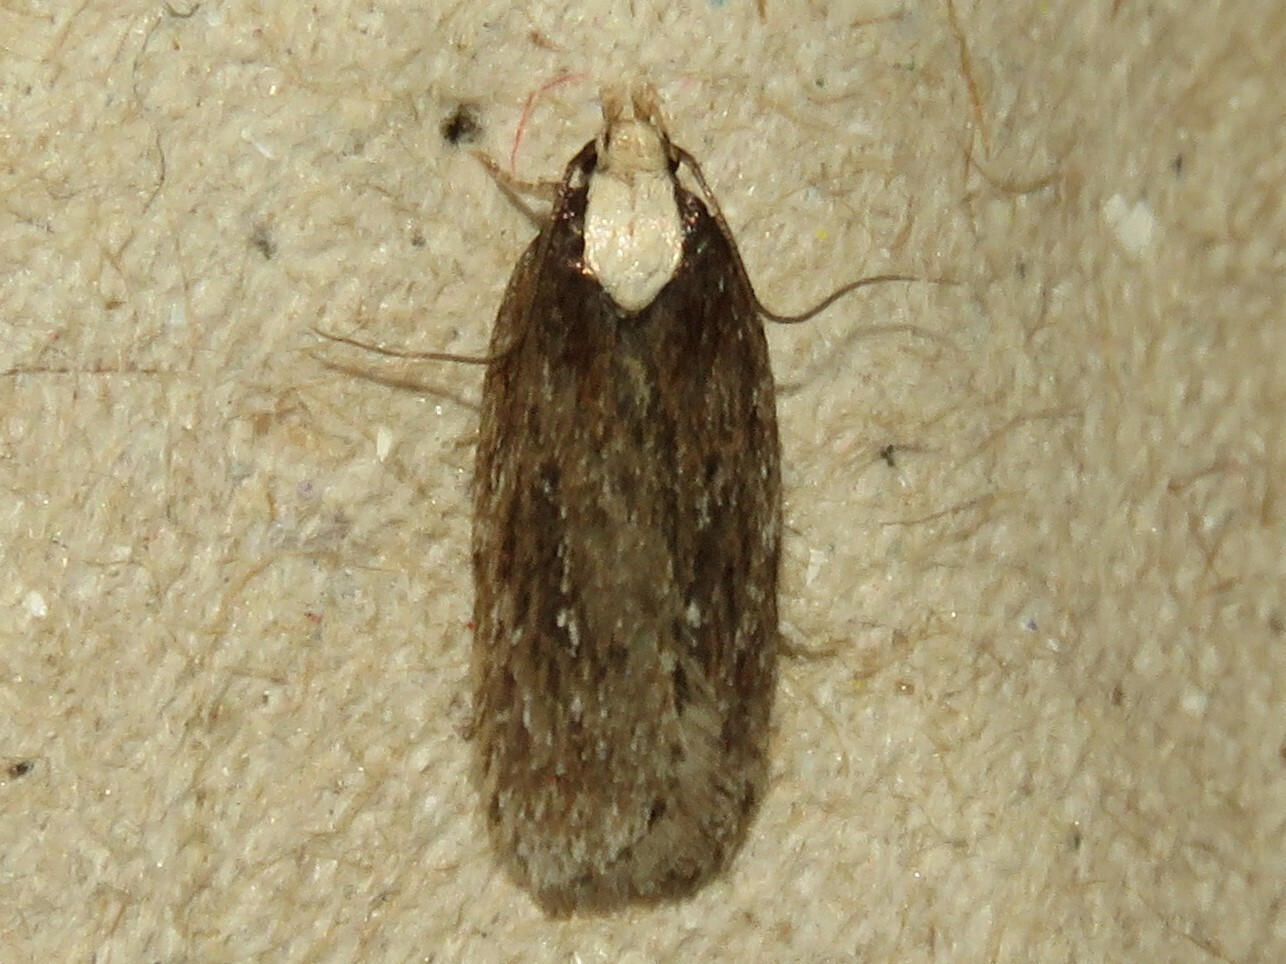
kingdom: Animalia
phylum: Arthropoda
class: Insecta
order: Lepidoptera
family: Depressariidae
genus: Depressaria
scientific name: Depressaria alienella
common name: Yarrow webworm
